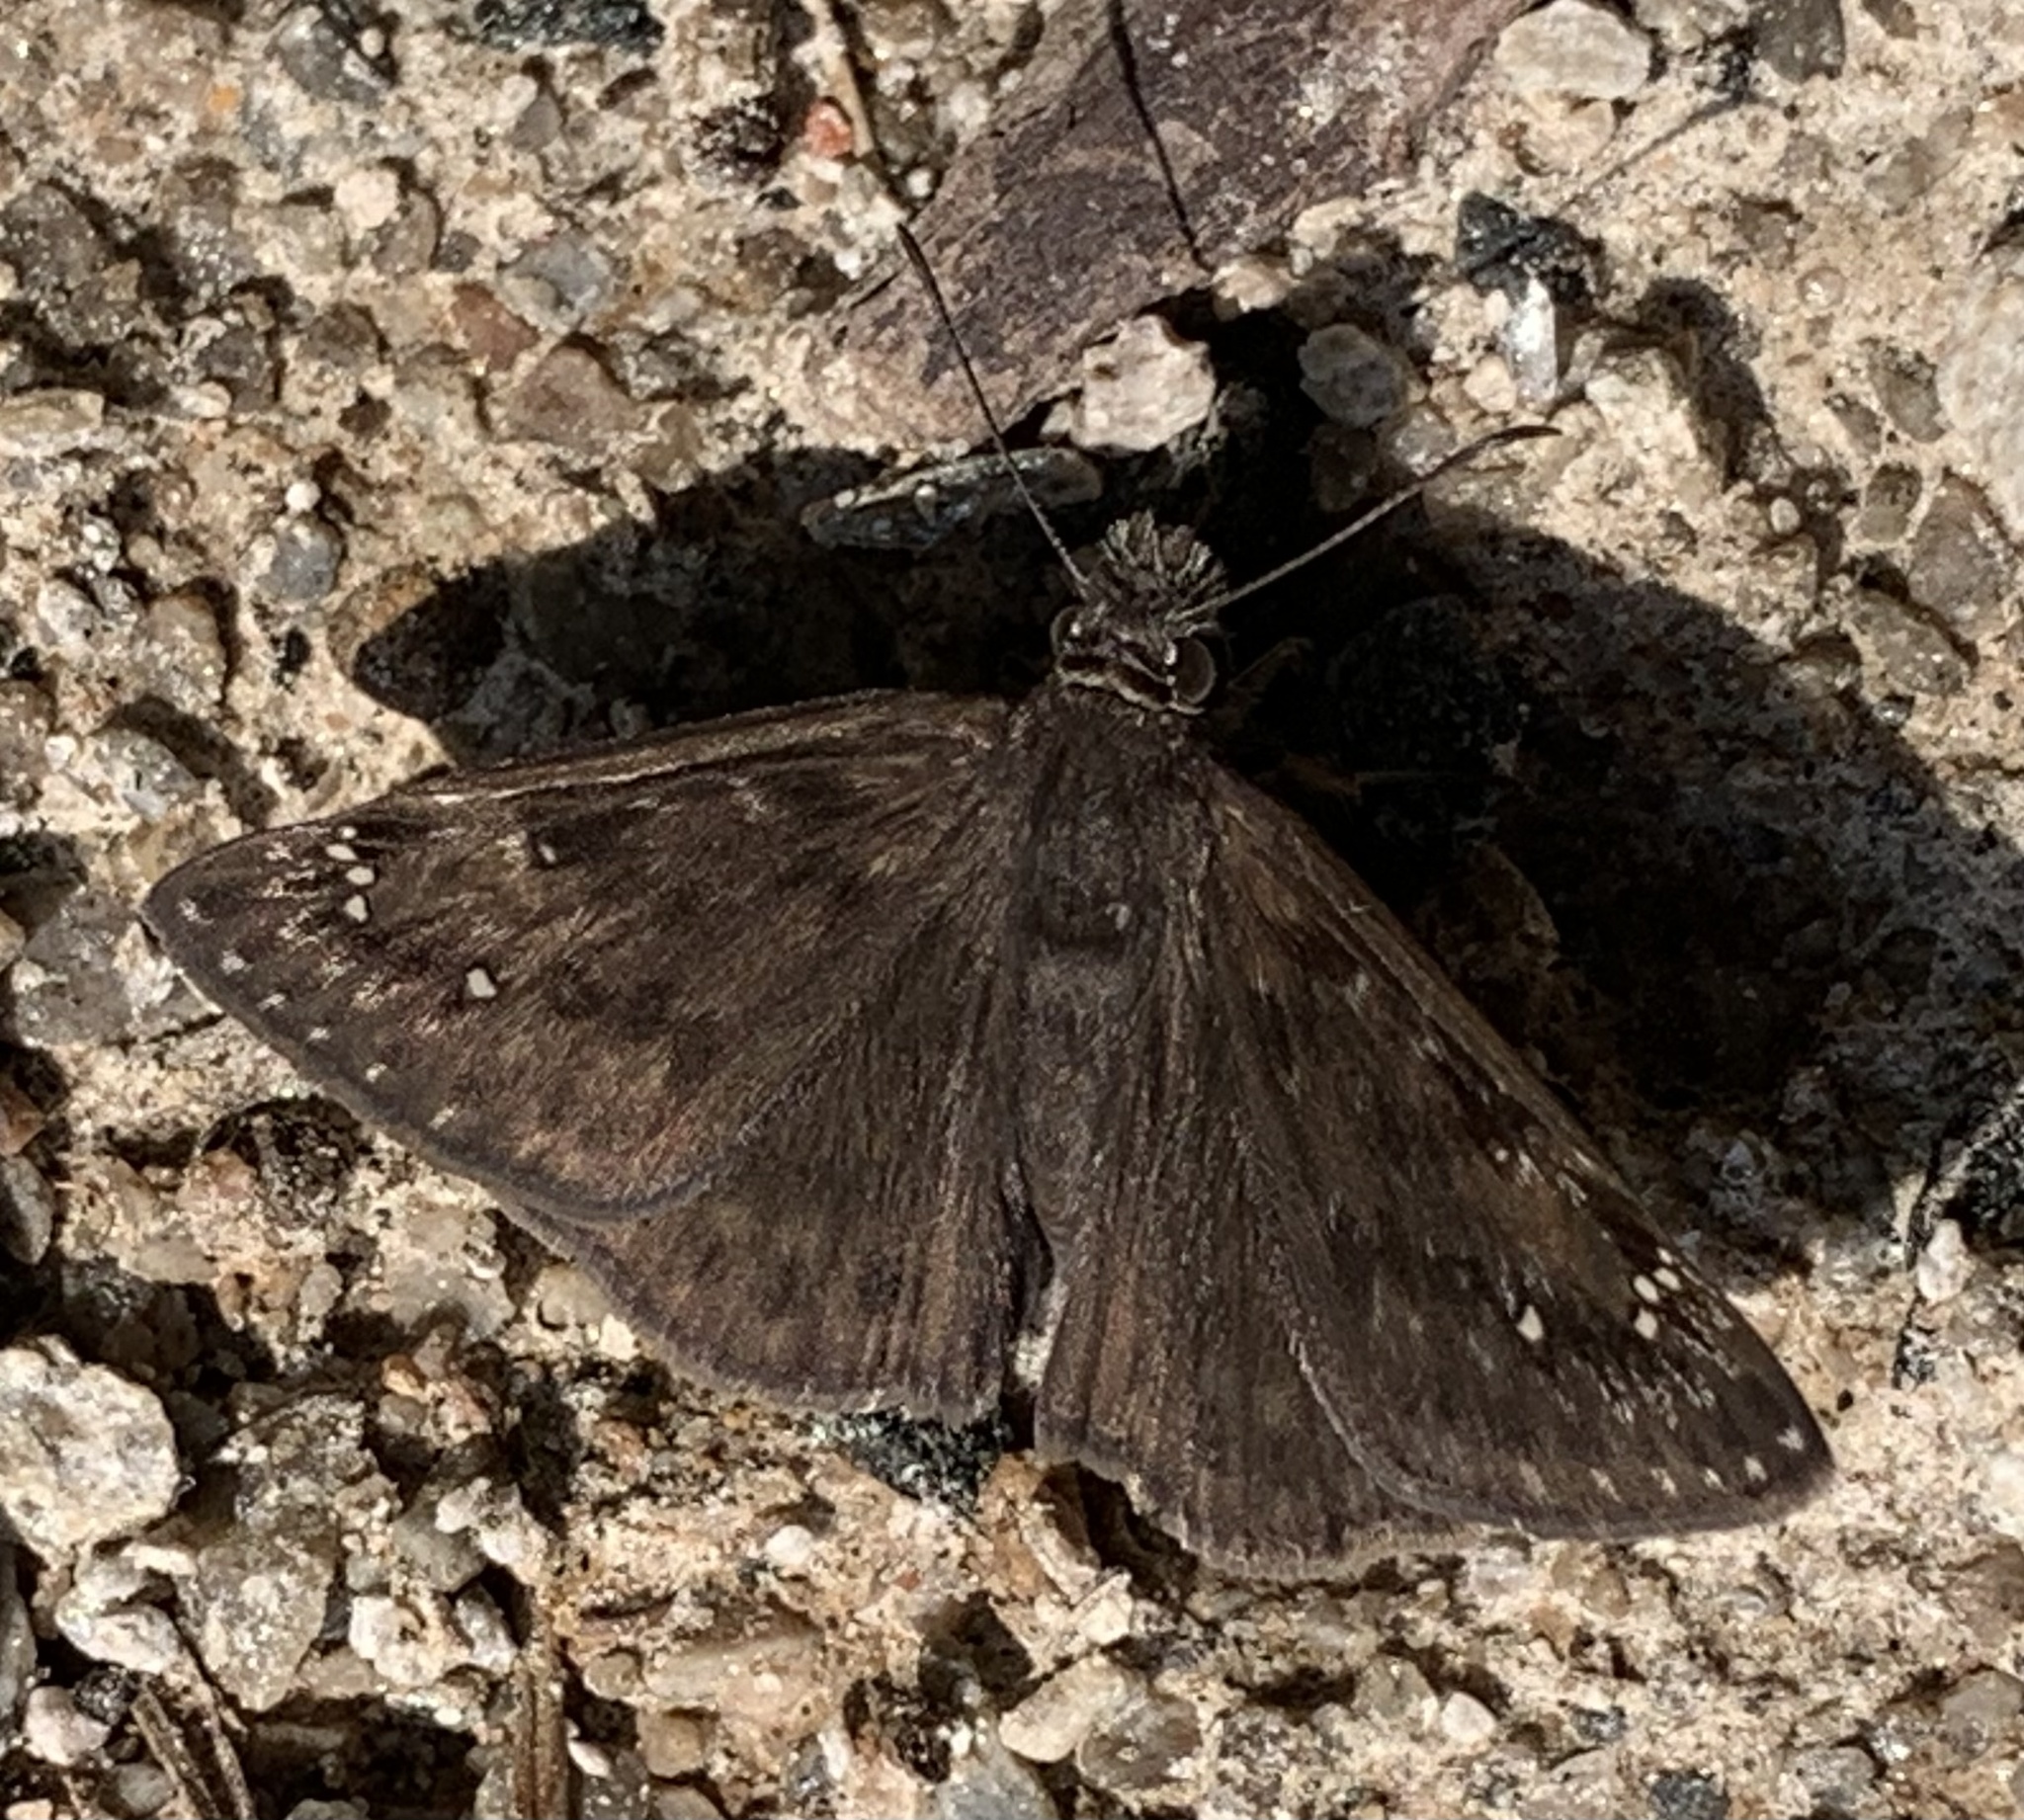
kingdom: Animalia
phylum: Arthropoda
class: Insecta
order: Lepidoptera
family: Hesperiidae
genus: Erynnis
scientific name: Erynnis horatius
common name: Horace's duskywing
